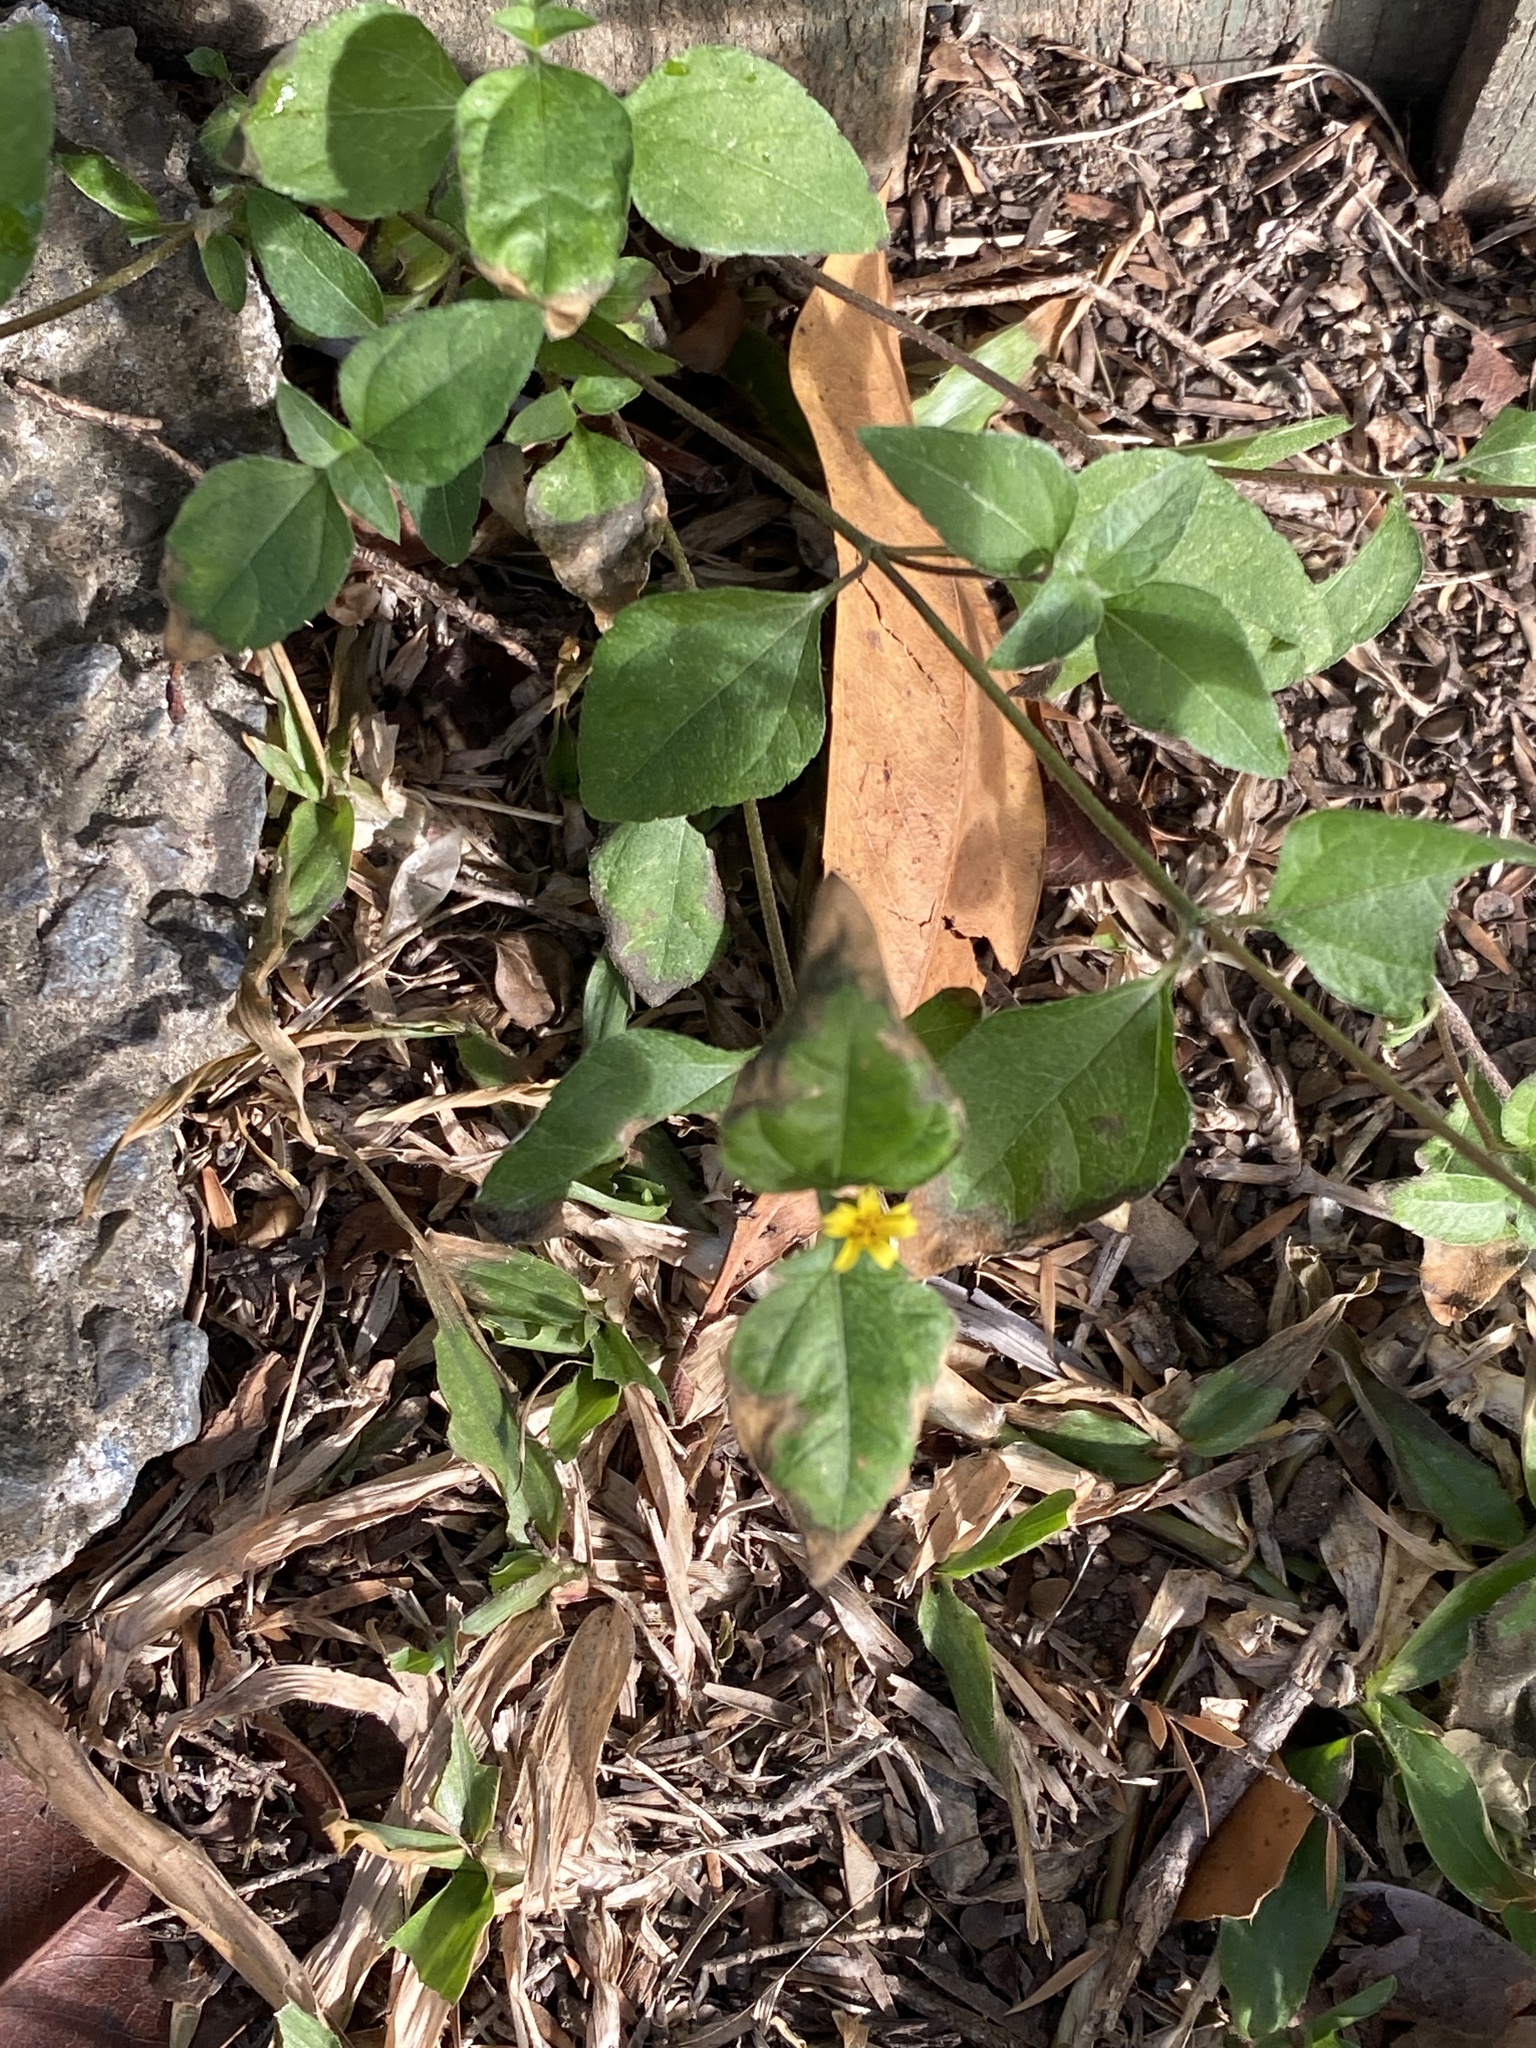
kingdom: Plantae
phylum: Tracheophyta
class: Magnoliopsida
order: Asterales
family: Asteraceae
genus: Calyptocarpus
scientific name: Calyptocarpus vialis
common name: Straggler daisy
